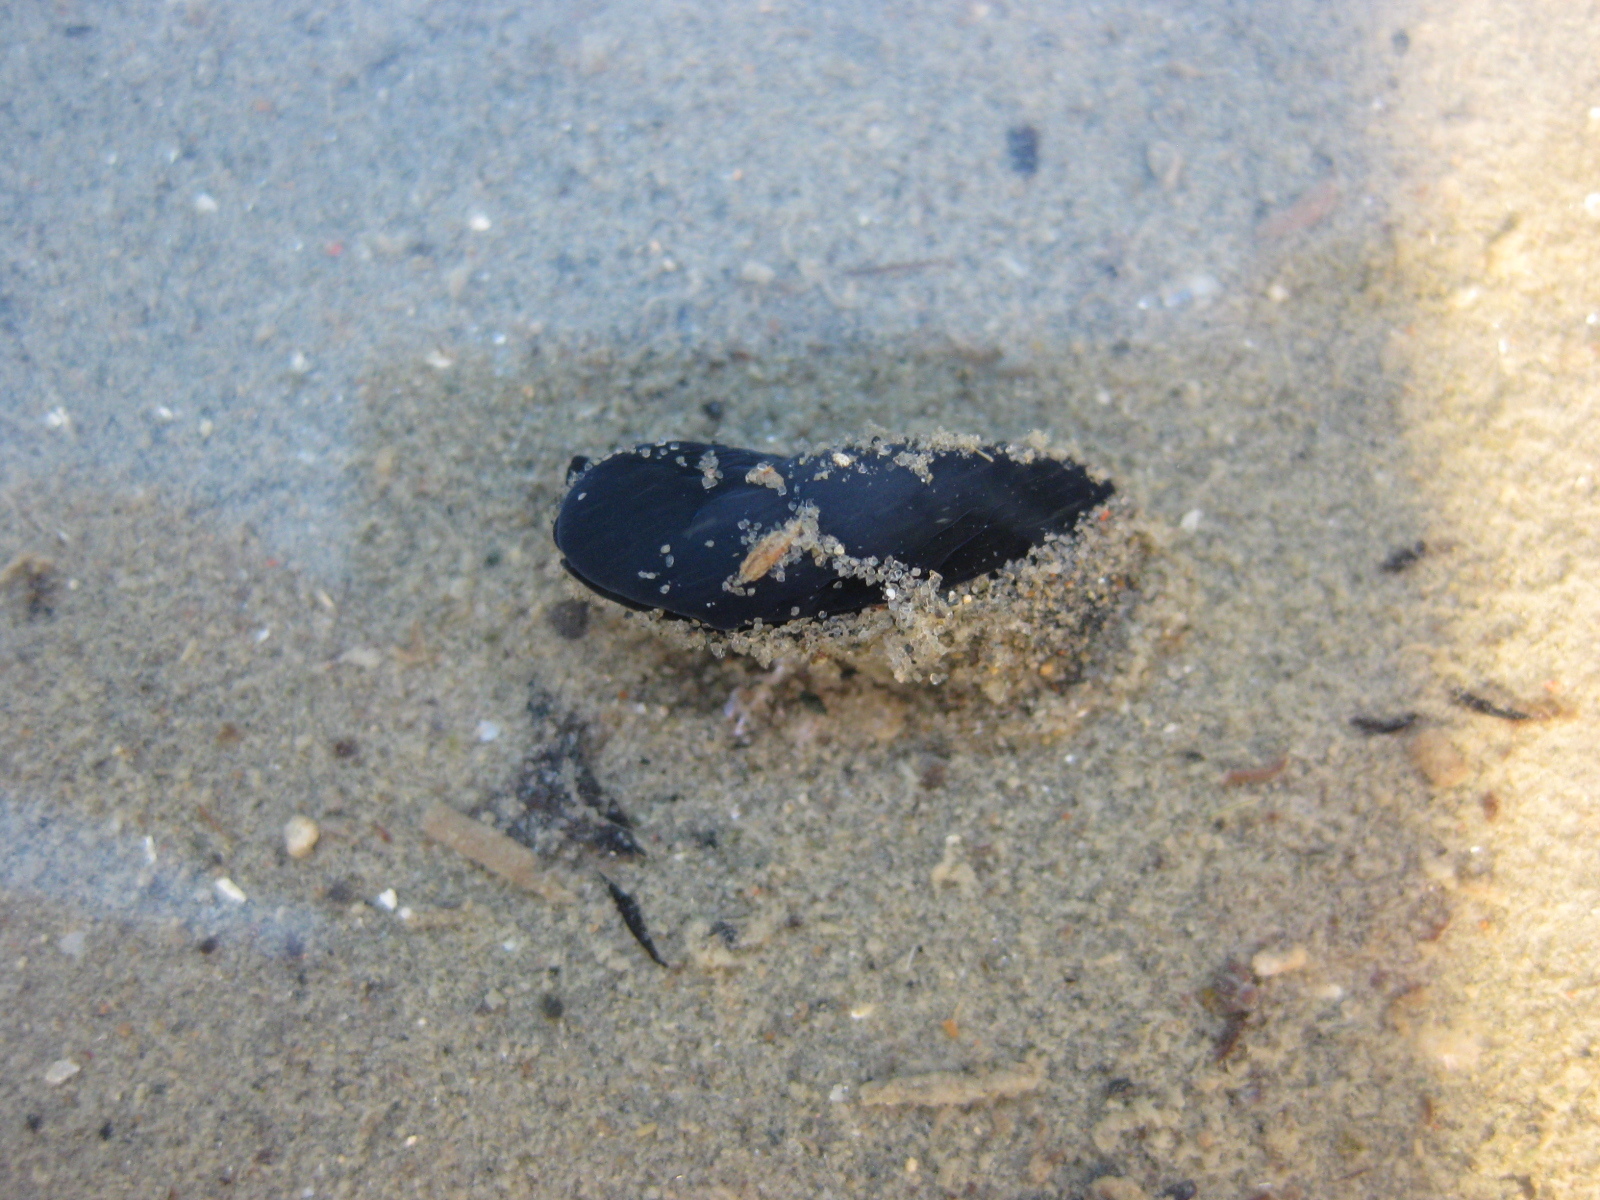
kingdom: Animalia
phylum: Mollusca
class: Gastropoda
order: Cephalaspidea
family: Aglajidae
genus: Melanochlamys
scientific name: Melanochlamys cylindrica
